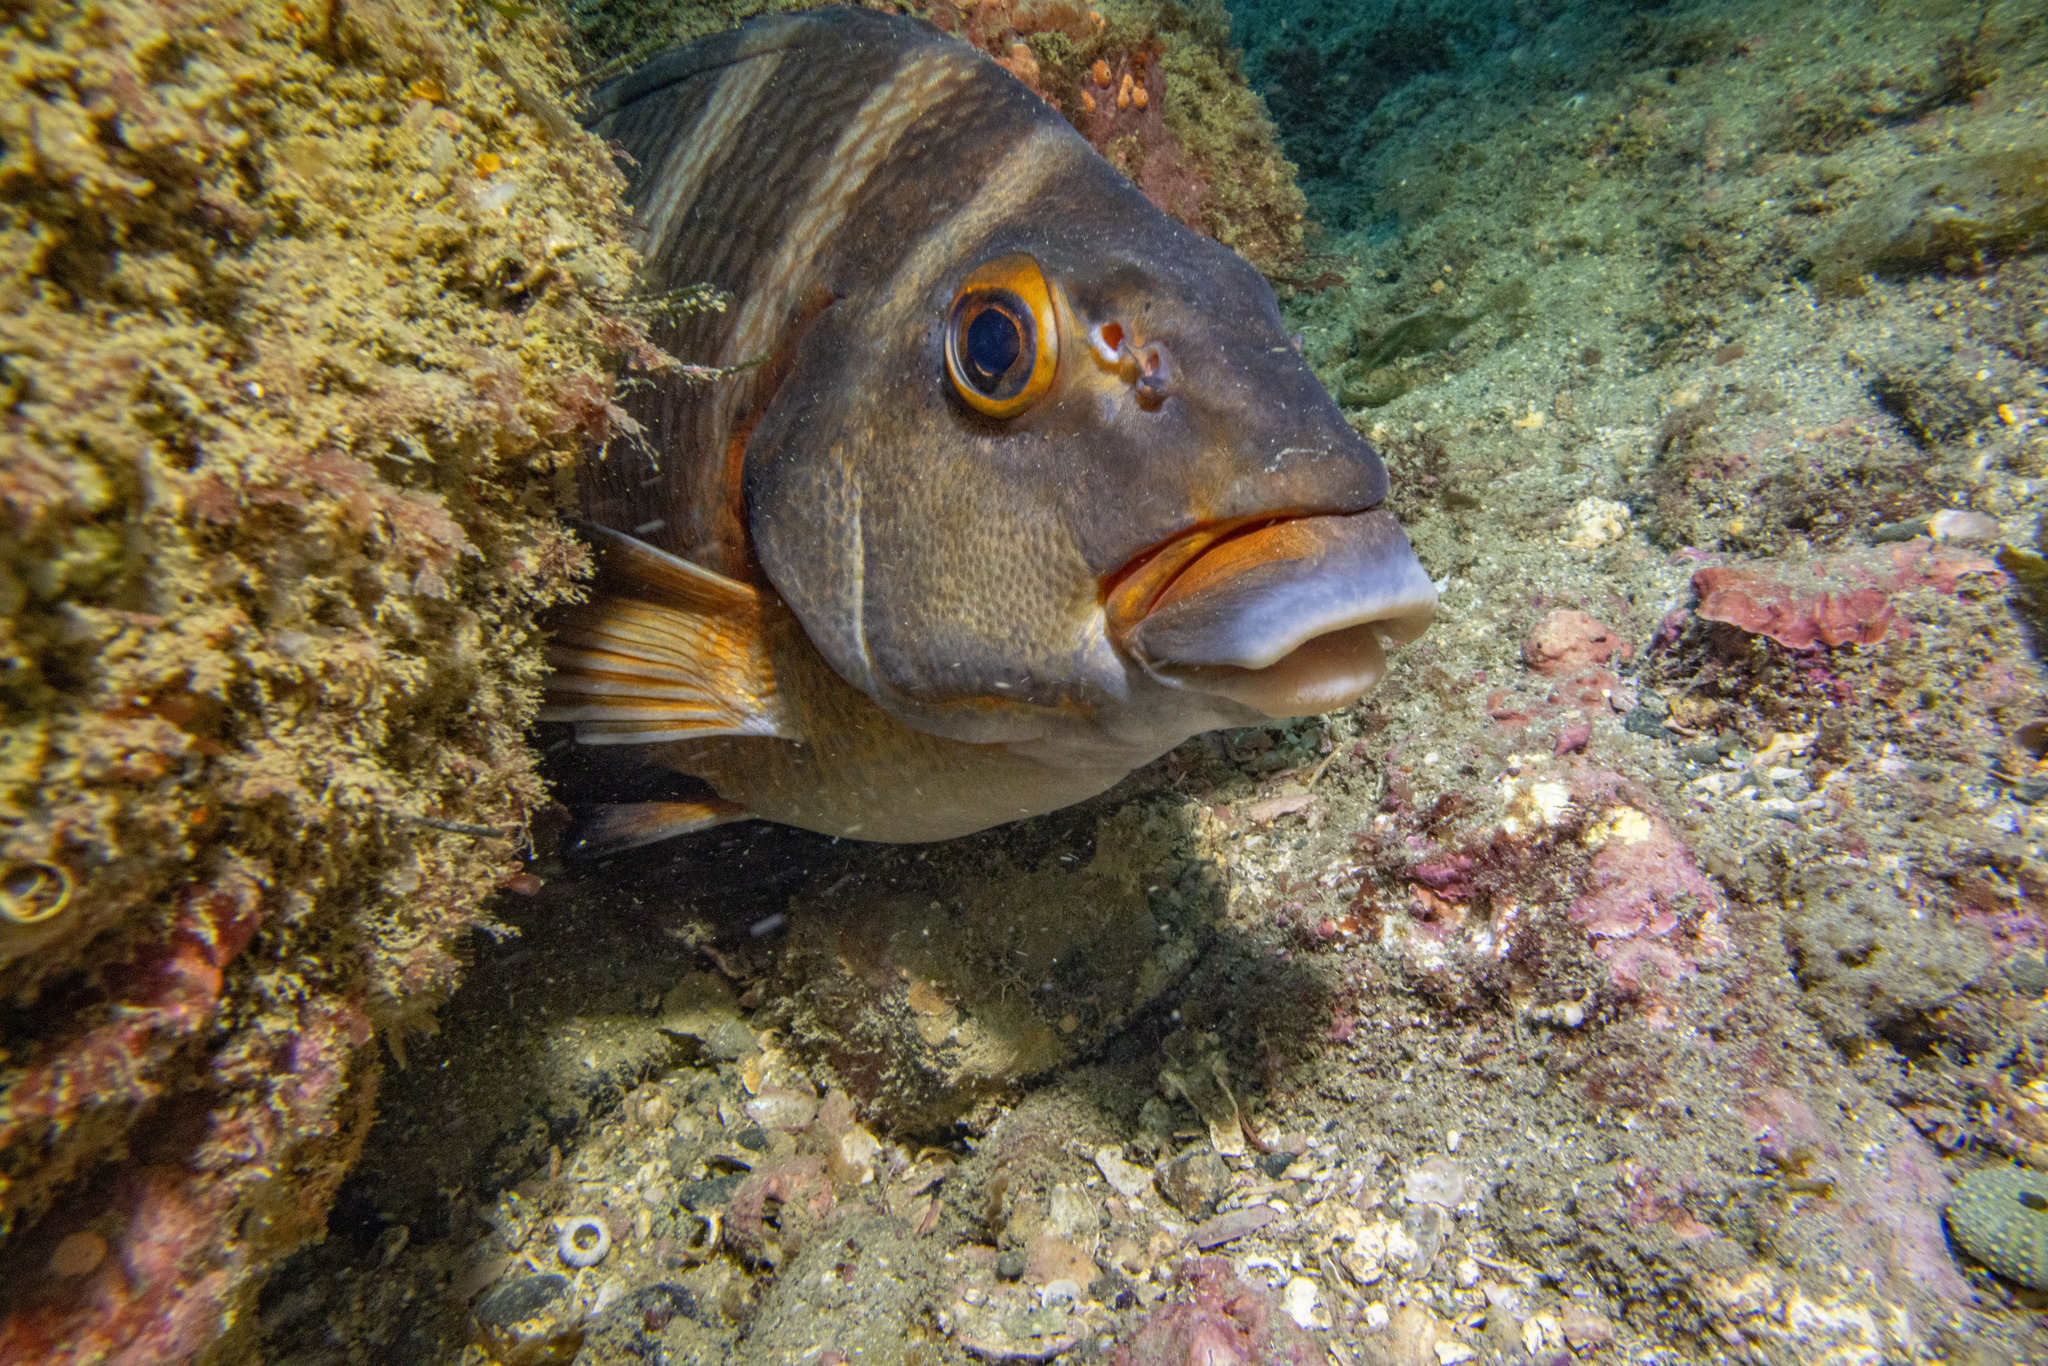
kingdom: Animalia
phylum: Chordata
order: Perciformes
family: Cheilodactylidae
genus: Cheilodactylus
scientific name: Cheilodactylus spectabilis
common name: Red moki
